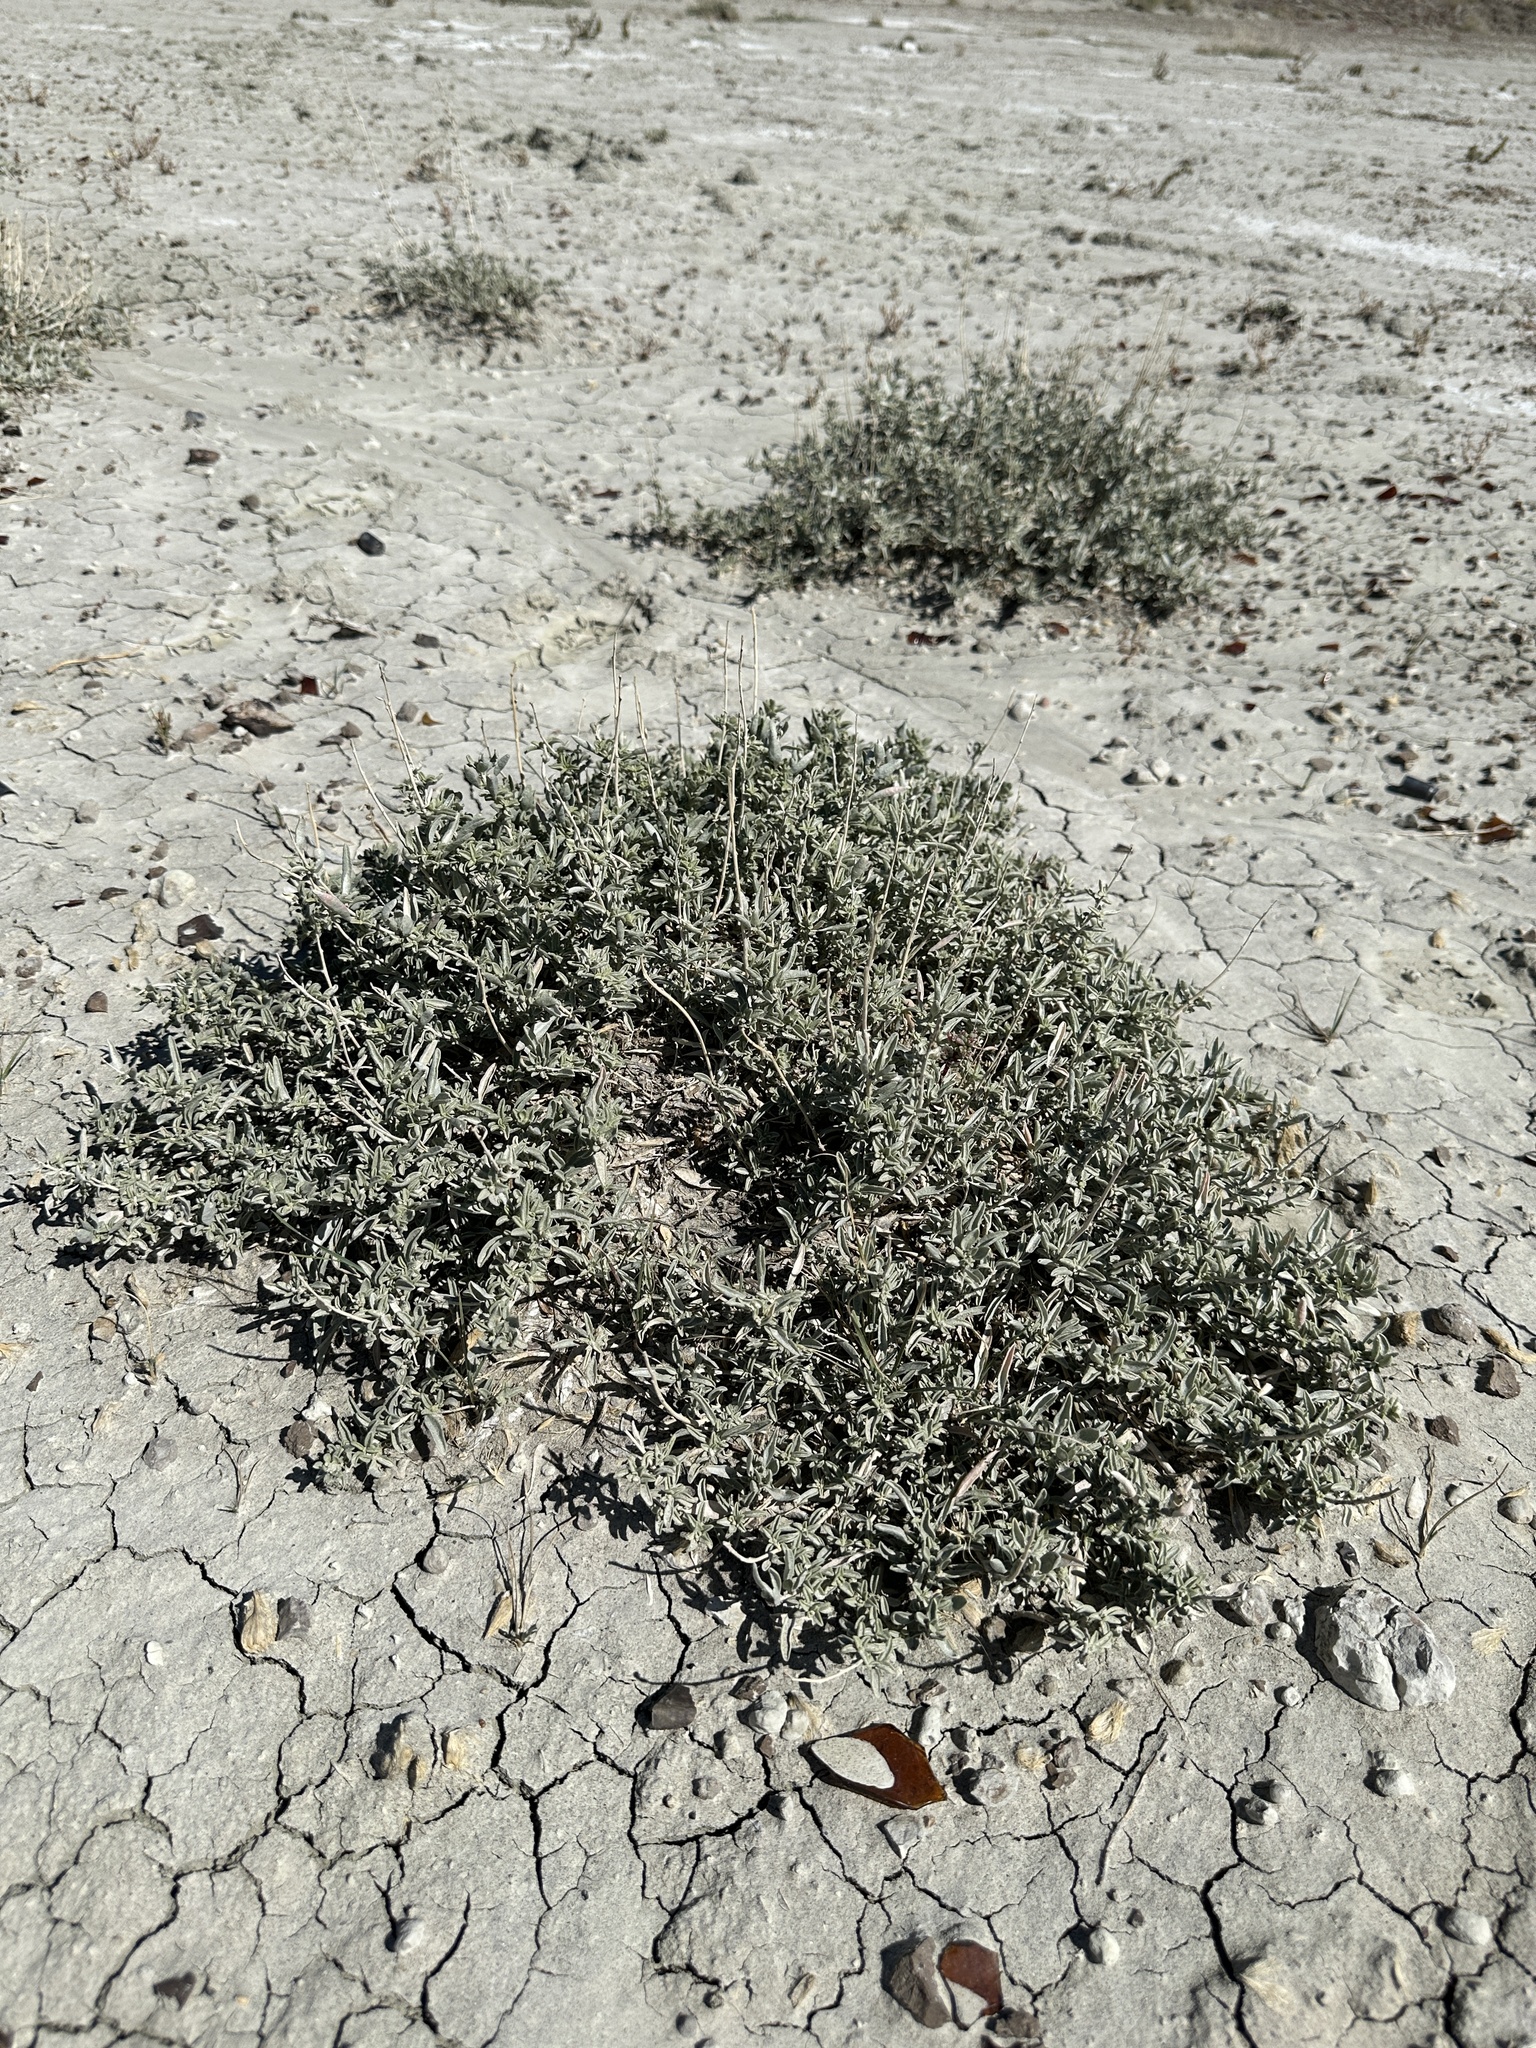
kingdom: Plantae
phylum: Tracheophyta
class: Magnoliopsida
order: Caryophyllales
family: Amaranthaceae
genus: Atriplex
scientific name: Atriplex gardneri
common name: Gardner's orache
